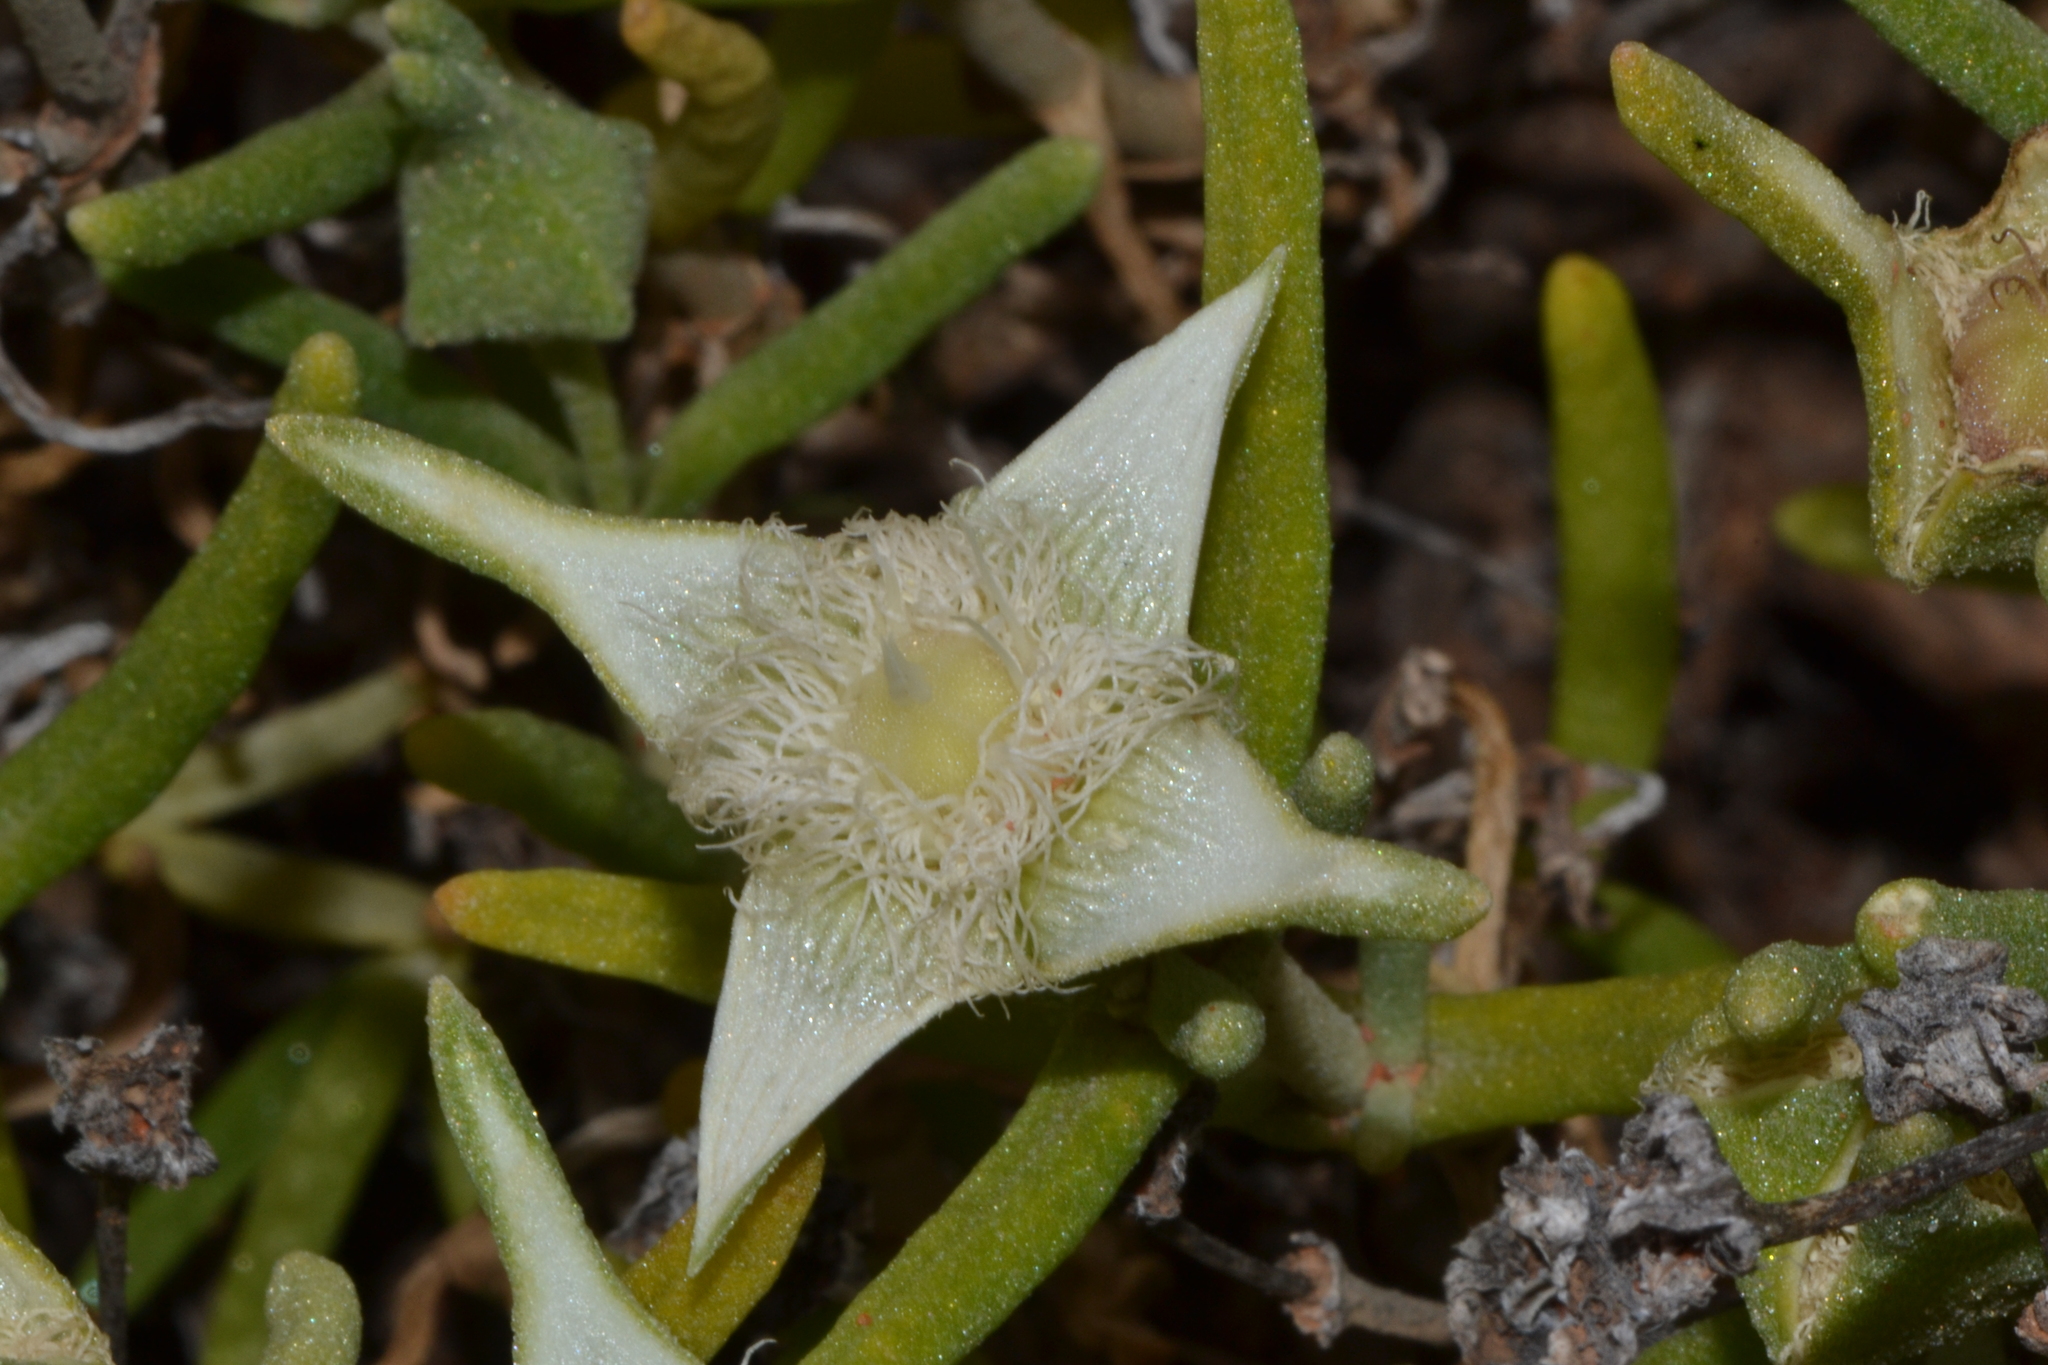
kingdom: Plantae
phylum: Tracheophyta
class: Magnoliopsida
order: Caryophyllales
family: Aizoaceae
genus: Gunniopsis
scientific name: Gunniopsis quadrifida
